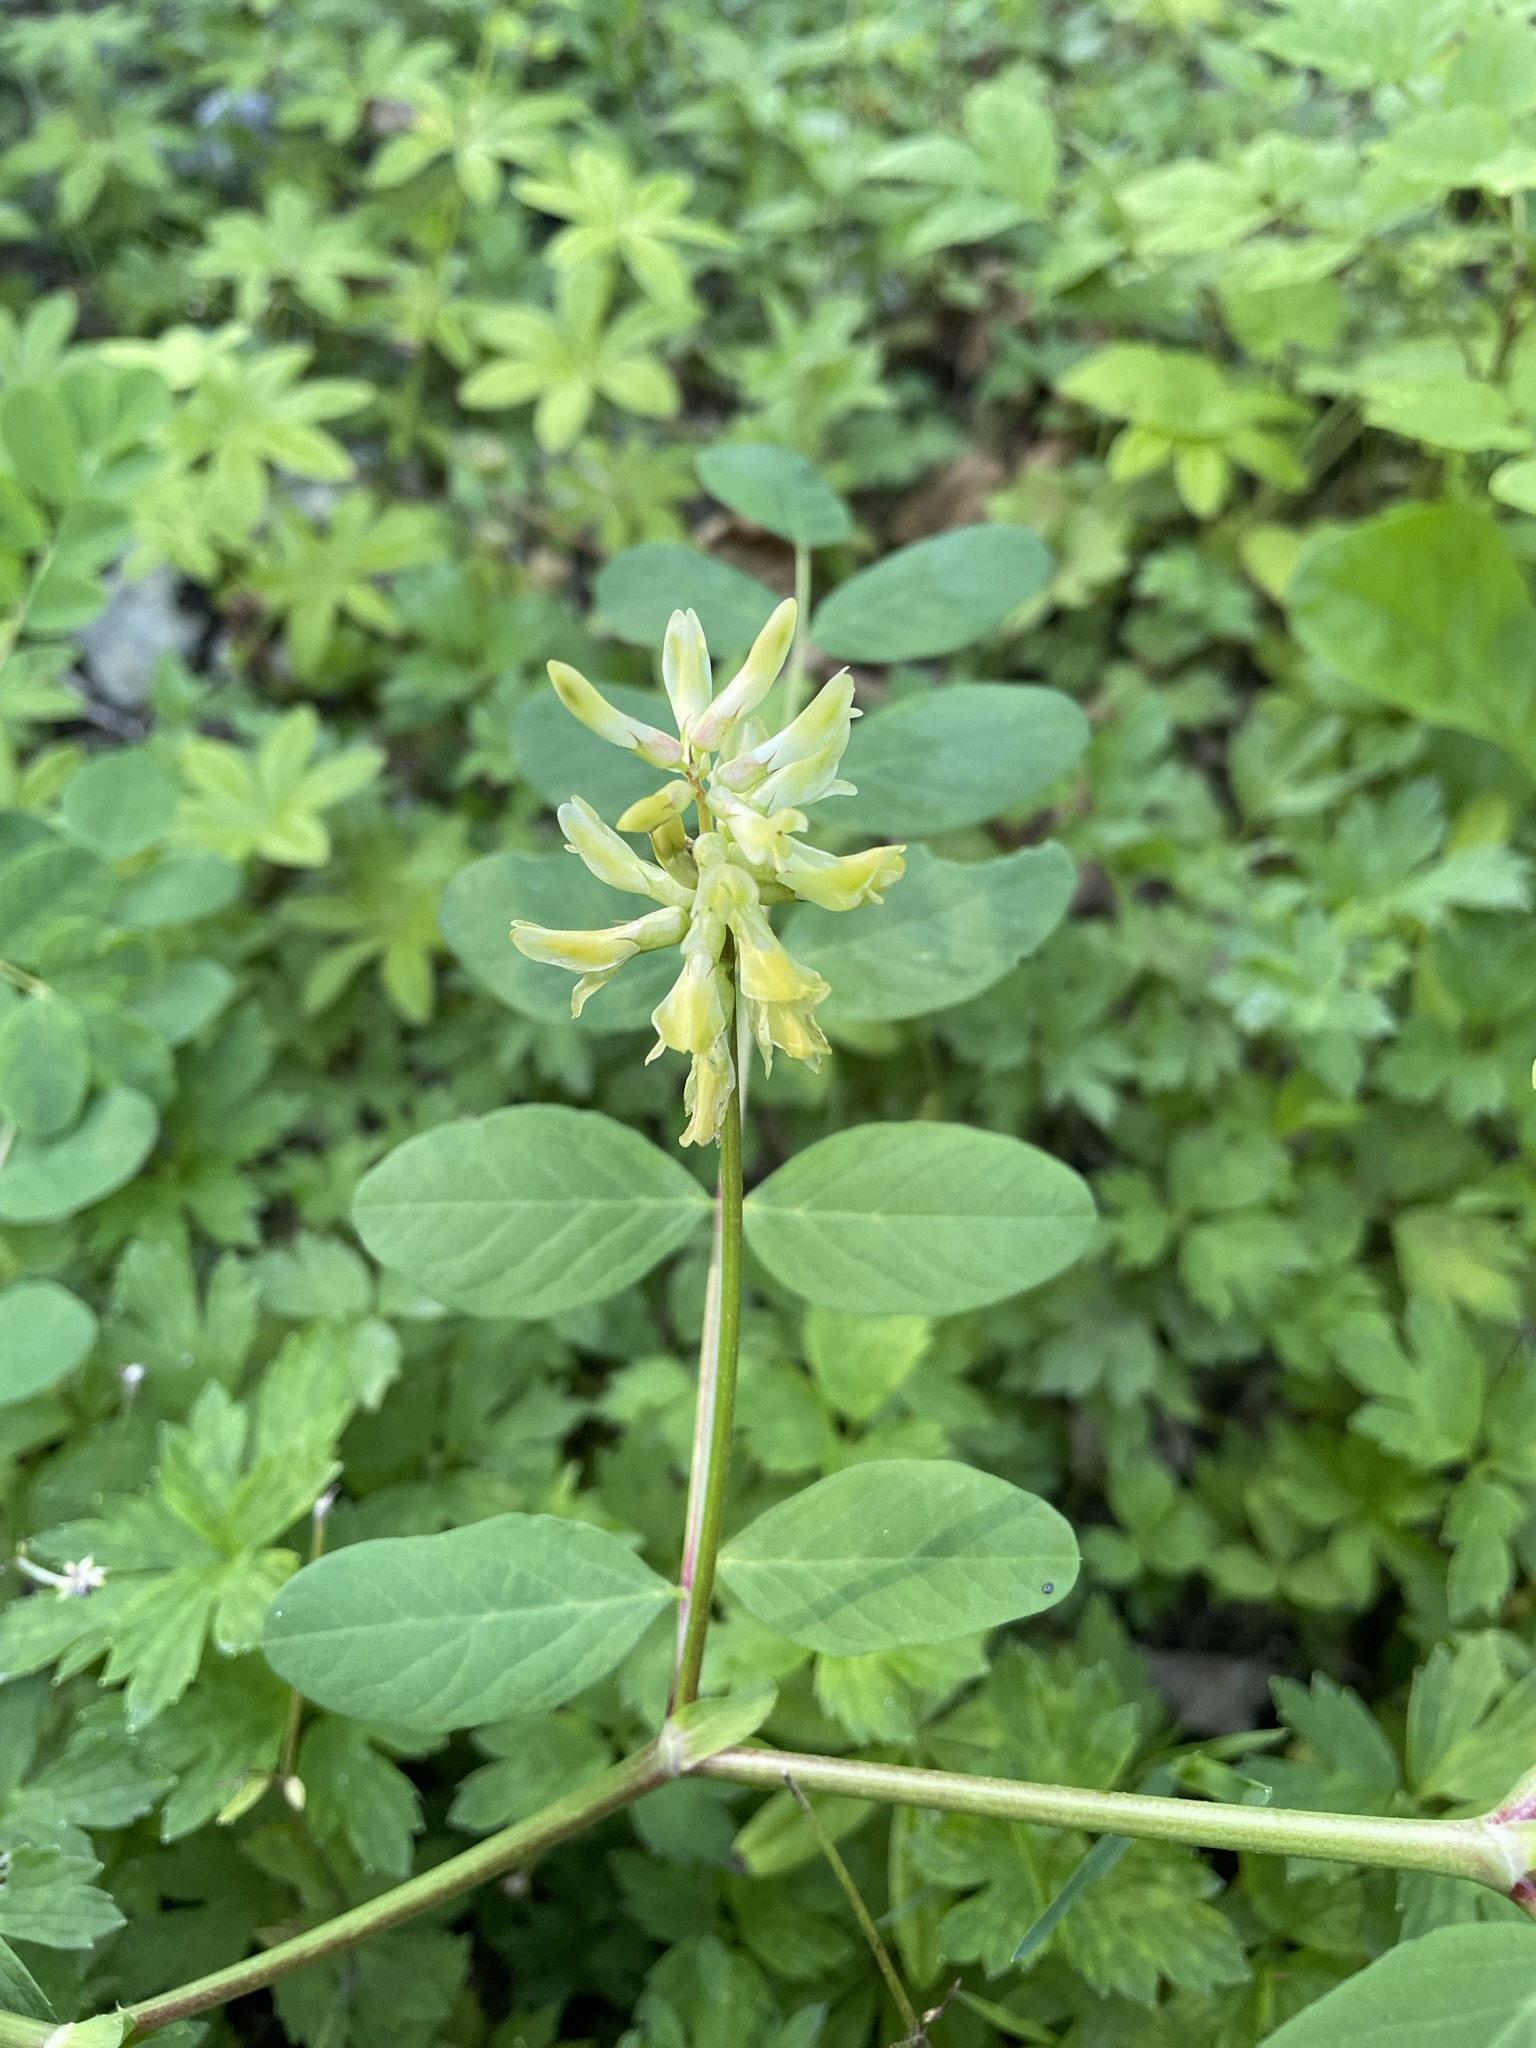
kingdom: Plantae
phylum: Tracheophyta
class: Magnoliopsida
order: Fabales
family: Fabaceae
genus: Astragalus
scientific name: Astragalus glycyphyllos
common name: Wild liquorice
